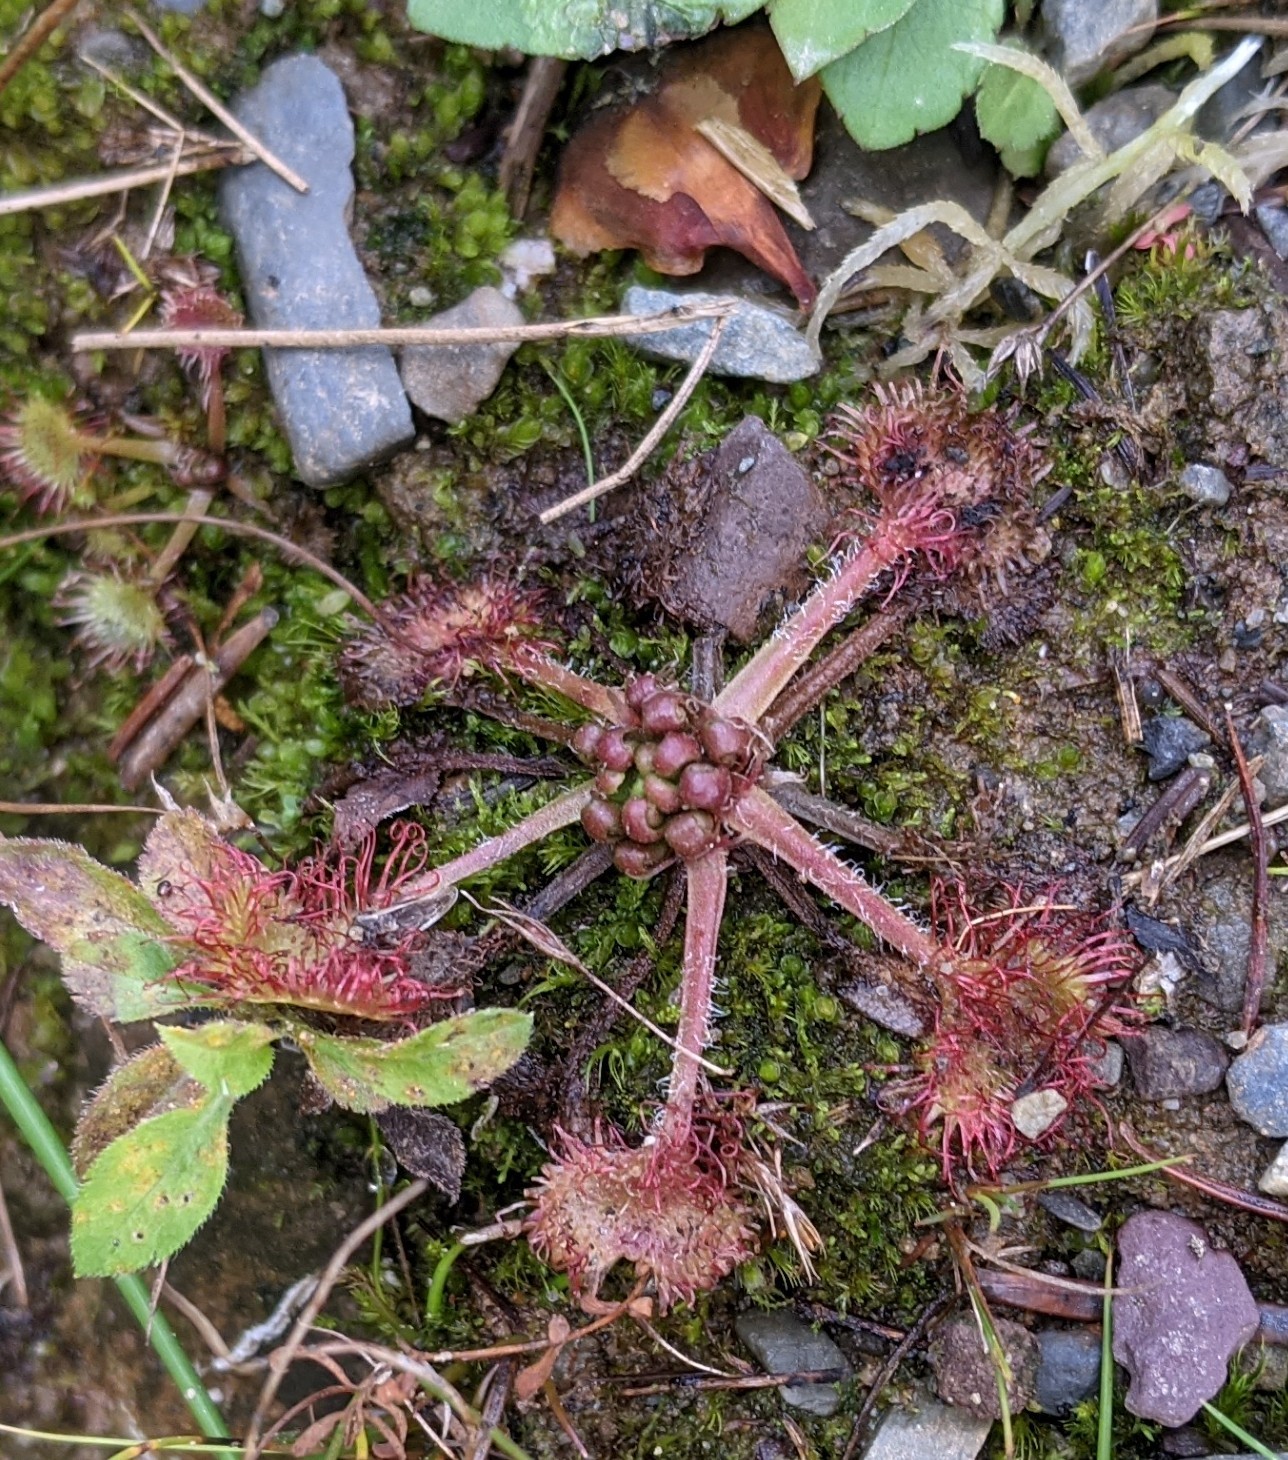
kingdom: Plantae
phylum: Tracheophyta
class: Magnoliopsida
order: Caryophyllales
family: Droseraceae
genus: Drosera
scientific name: Drosera rotundifolia
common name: Round-leaved sundew
